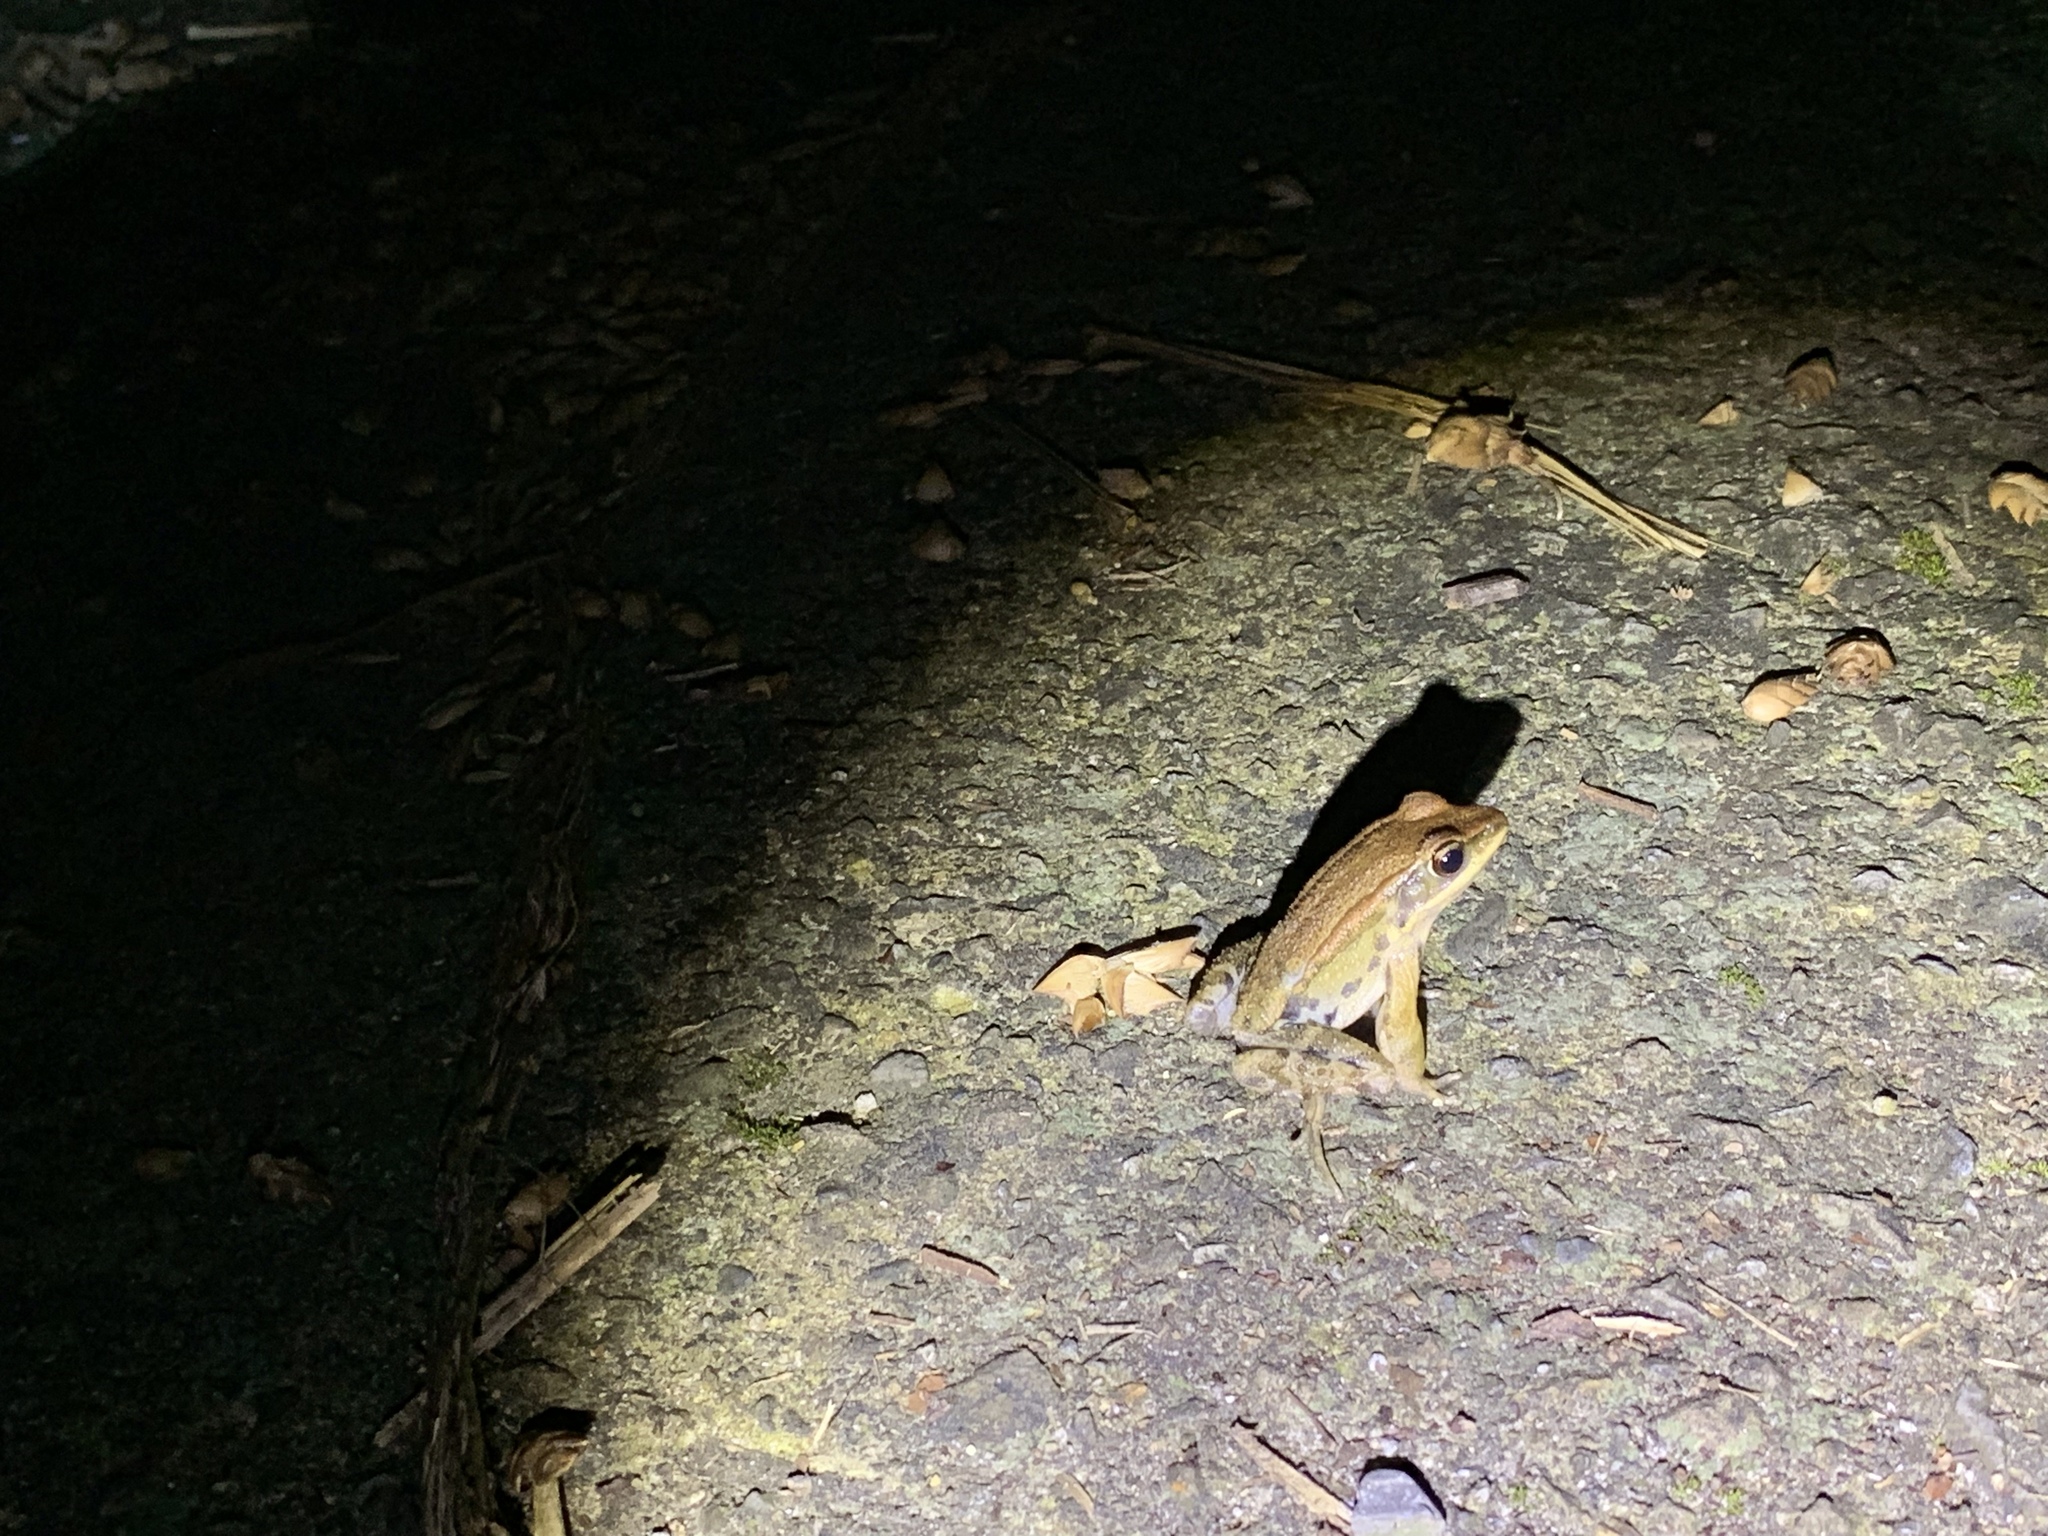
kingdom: Animalia
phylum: Chordata
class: Amphibia
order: Anura
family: Ranidae
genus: Hylarana
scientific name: Hylarana latouchii
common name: Broad-folded frog
